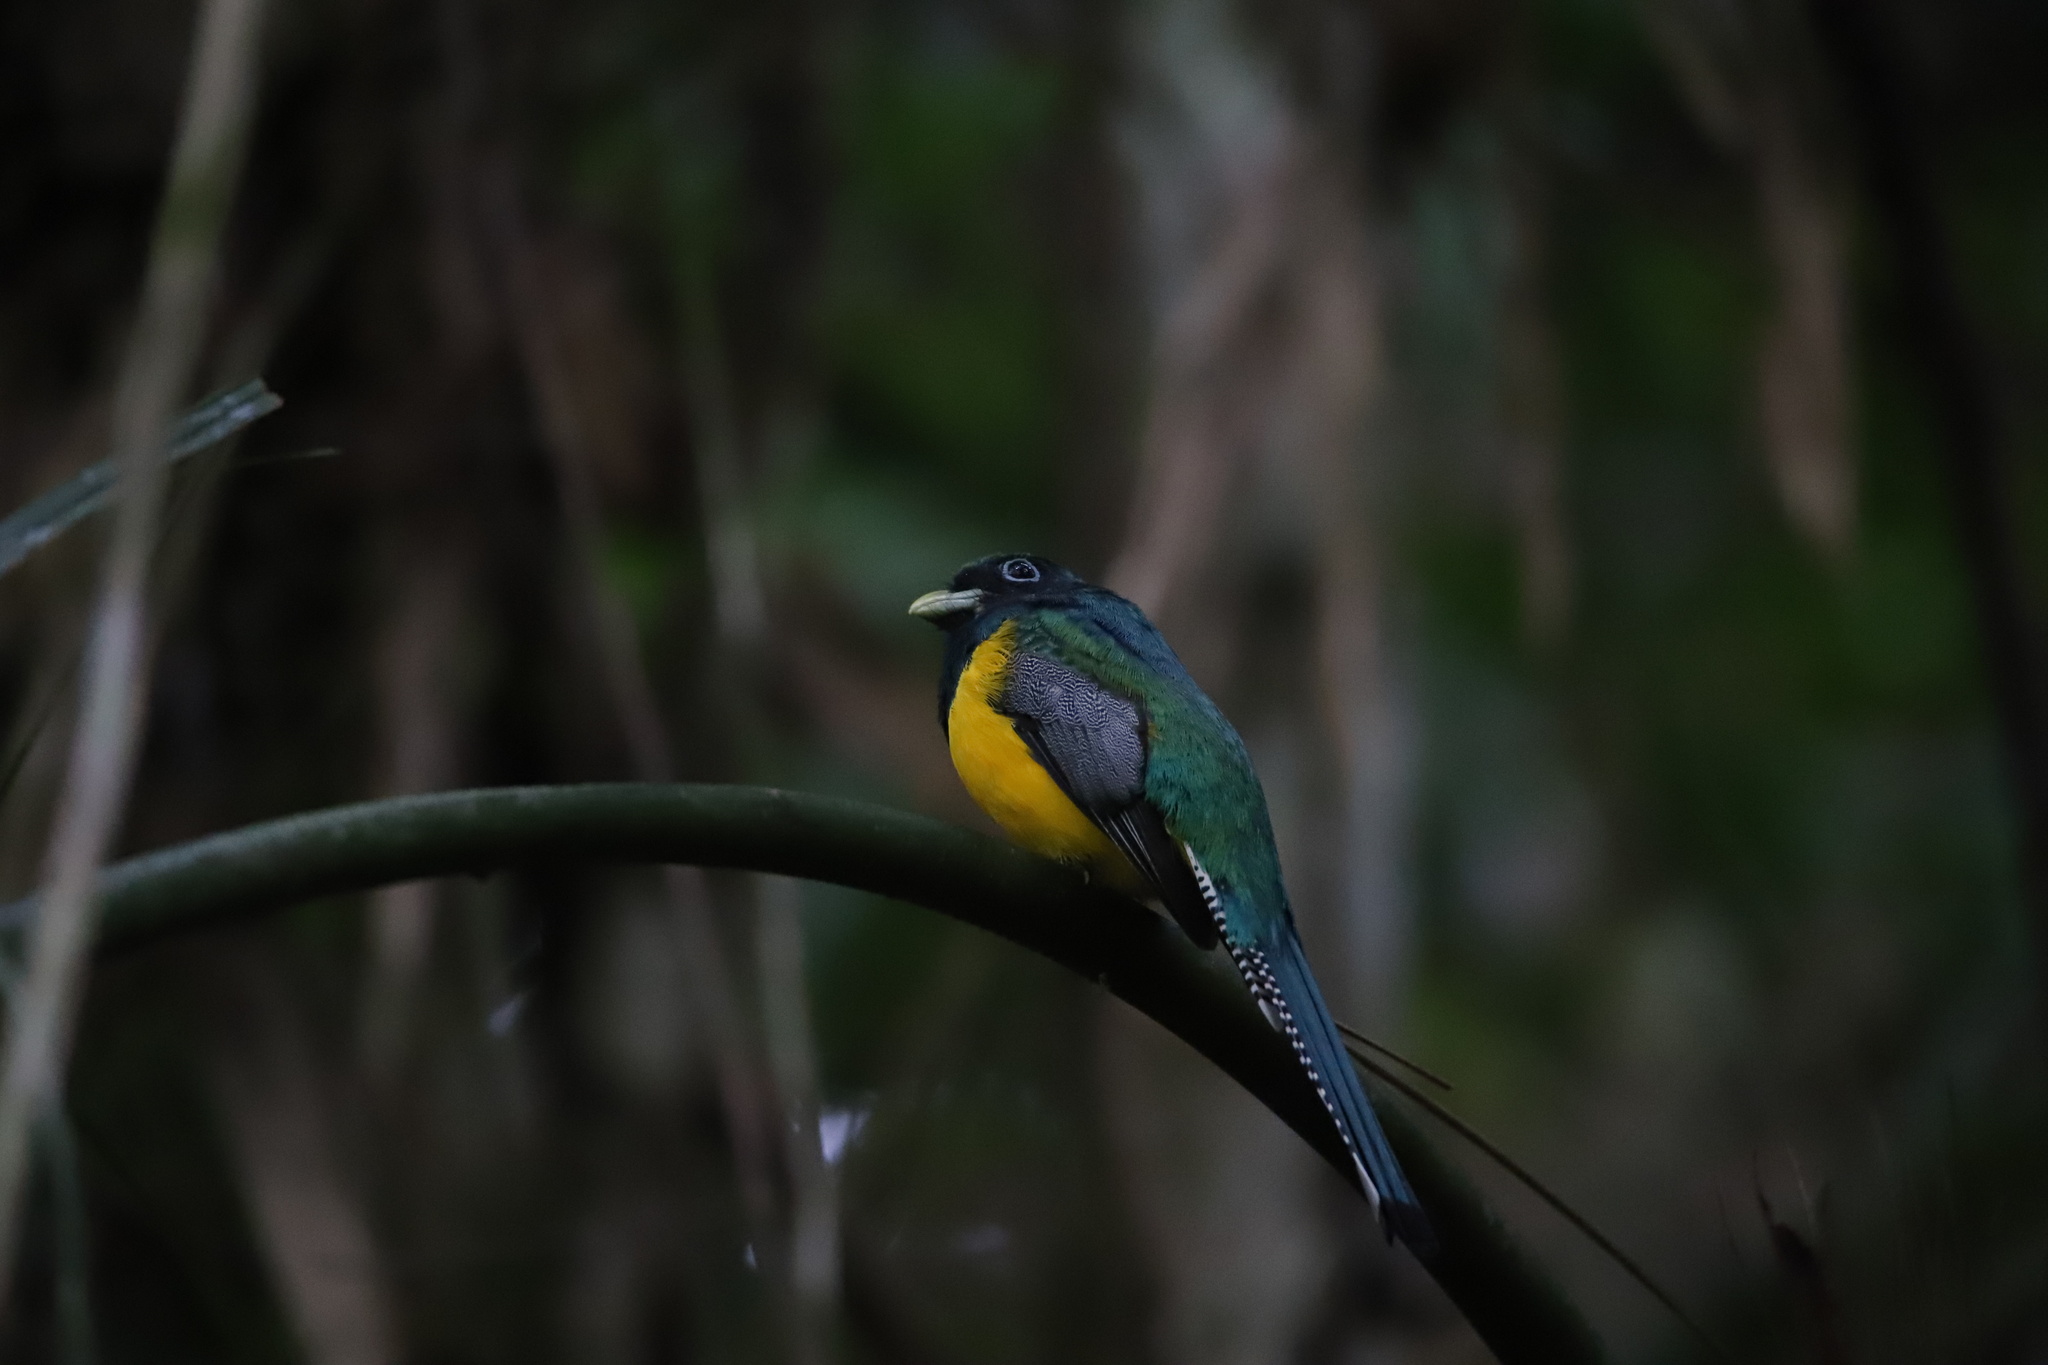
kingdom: Animalia
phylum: Chordata
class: Aves
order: Trogoniformes
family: Trogonidae
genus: Trogon
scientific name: Trogon rufus
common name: Black-throated trogon
